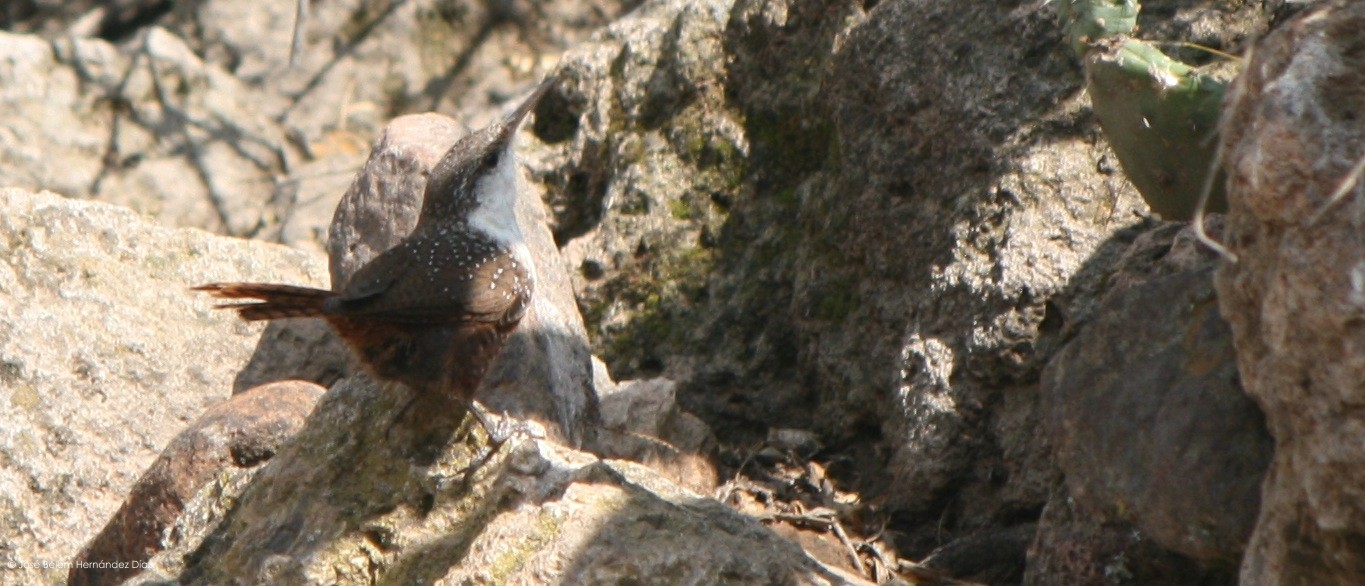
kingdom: Animalia
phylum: Chordata
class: Aves
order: Passeriformes
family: Troglodytidae
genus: Catherpes
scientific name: Catherpes mexicanus
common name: Canyon wren
